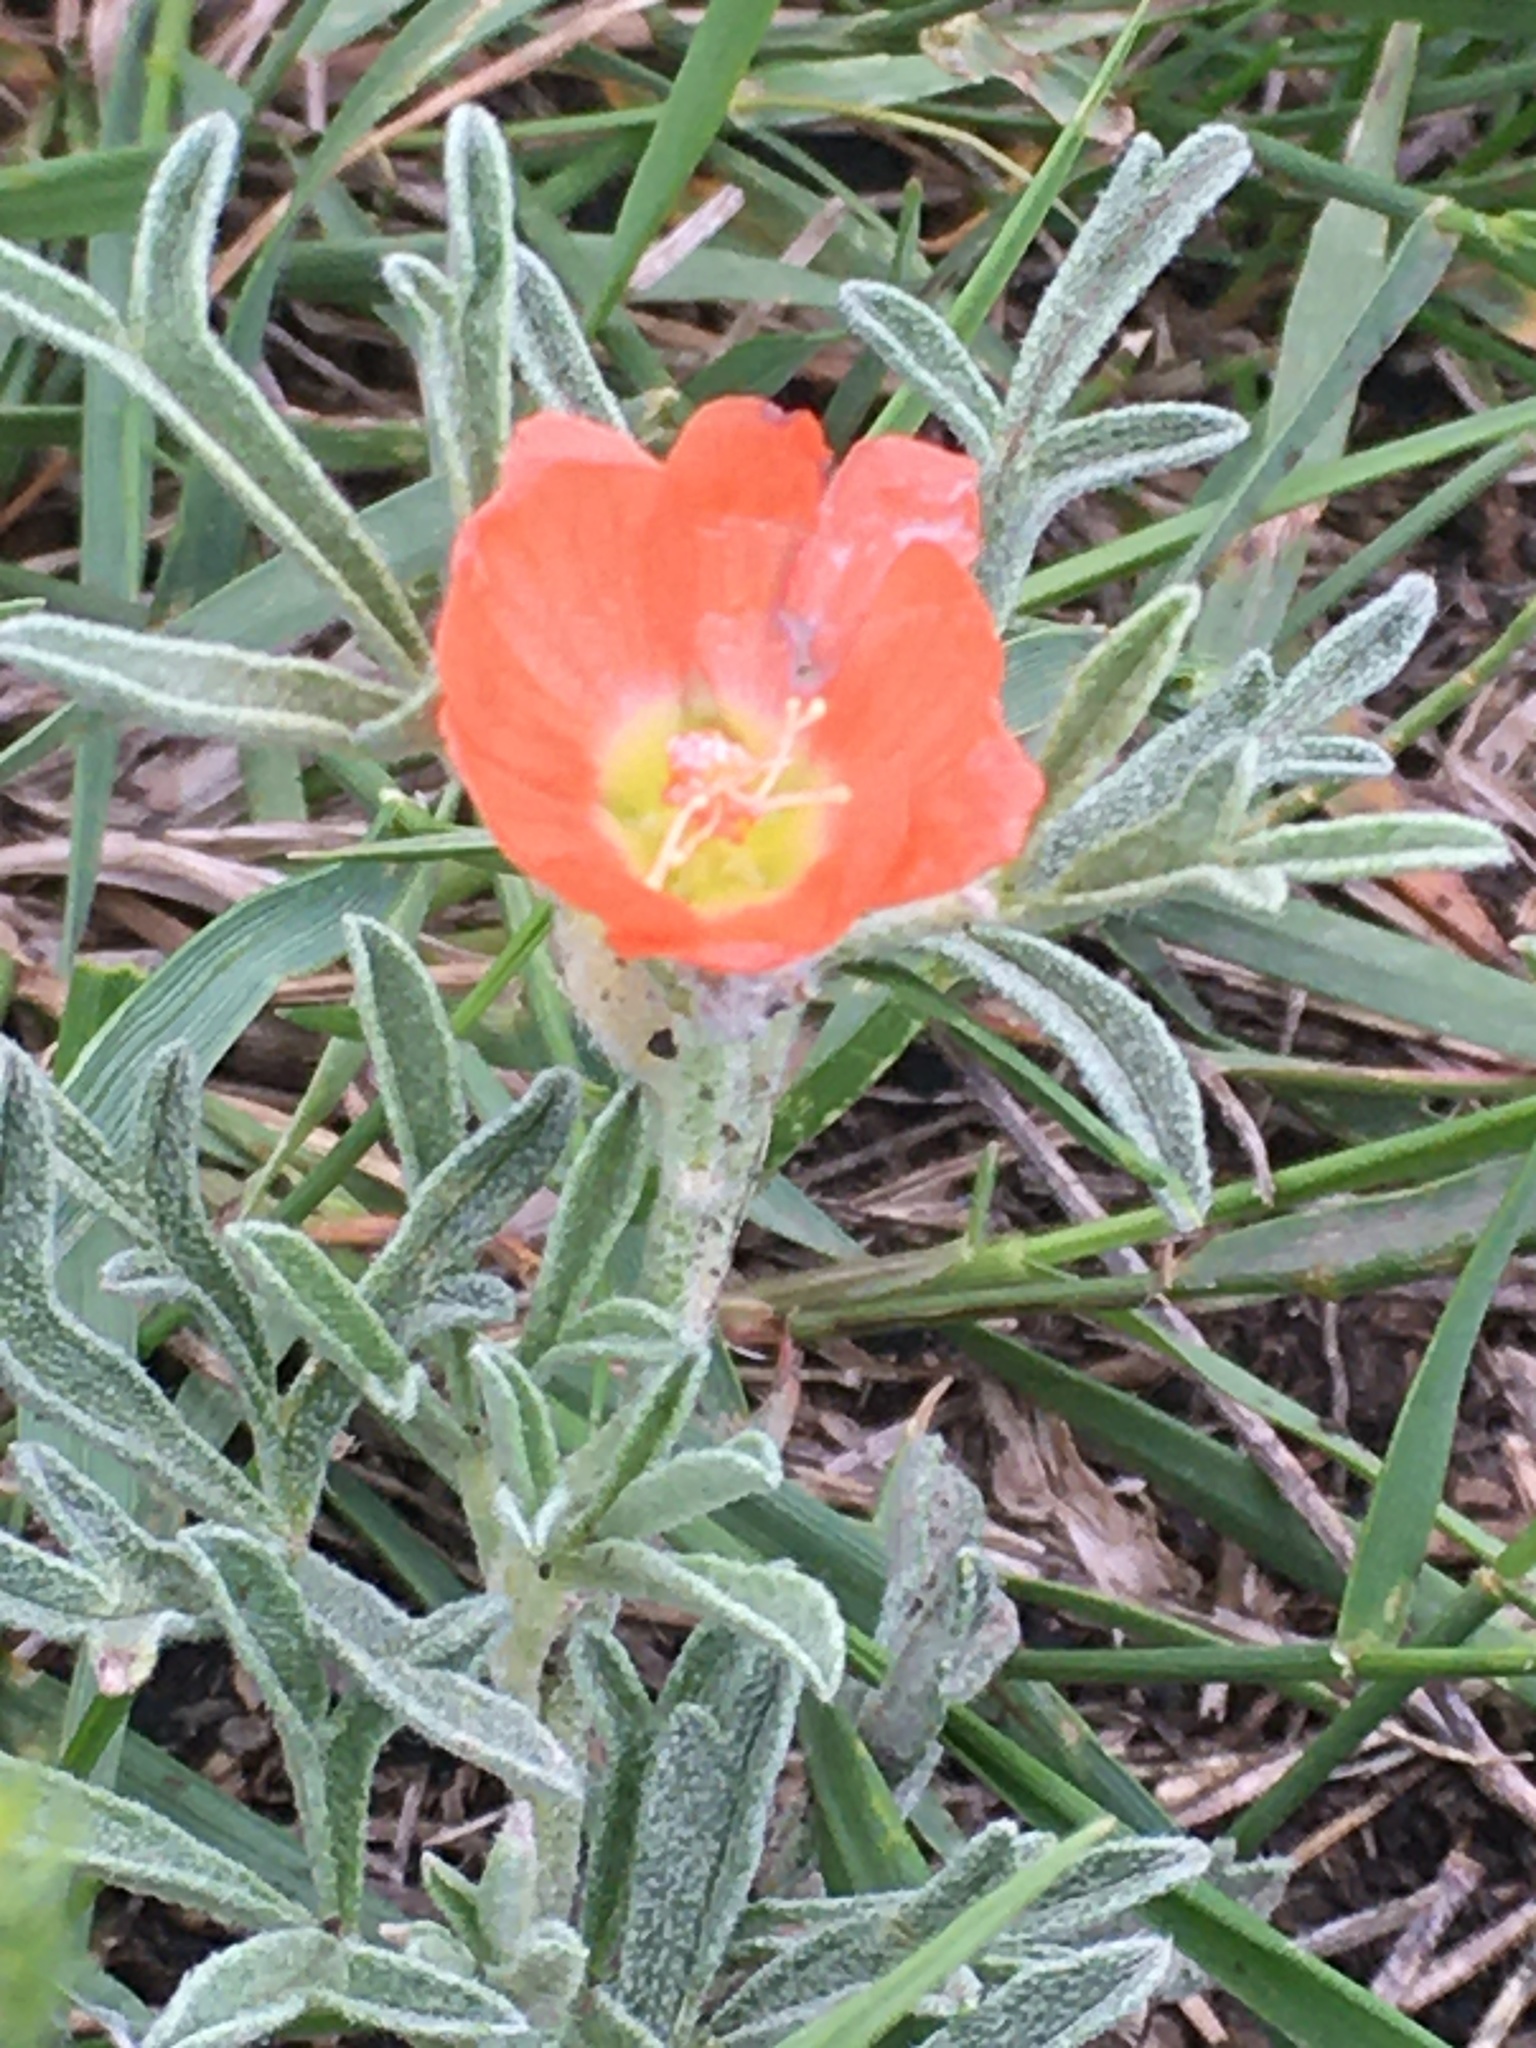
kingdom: Plantae
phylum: Tracheophyta
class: Magnoliopsida
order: Malvales
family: Malvaceae
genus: Sphaeralcea
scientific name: Sphaeralcea coccinea
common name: Moss-rose
